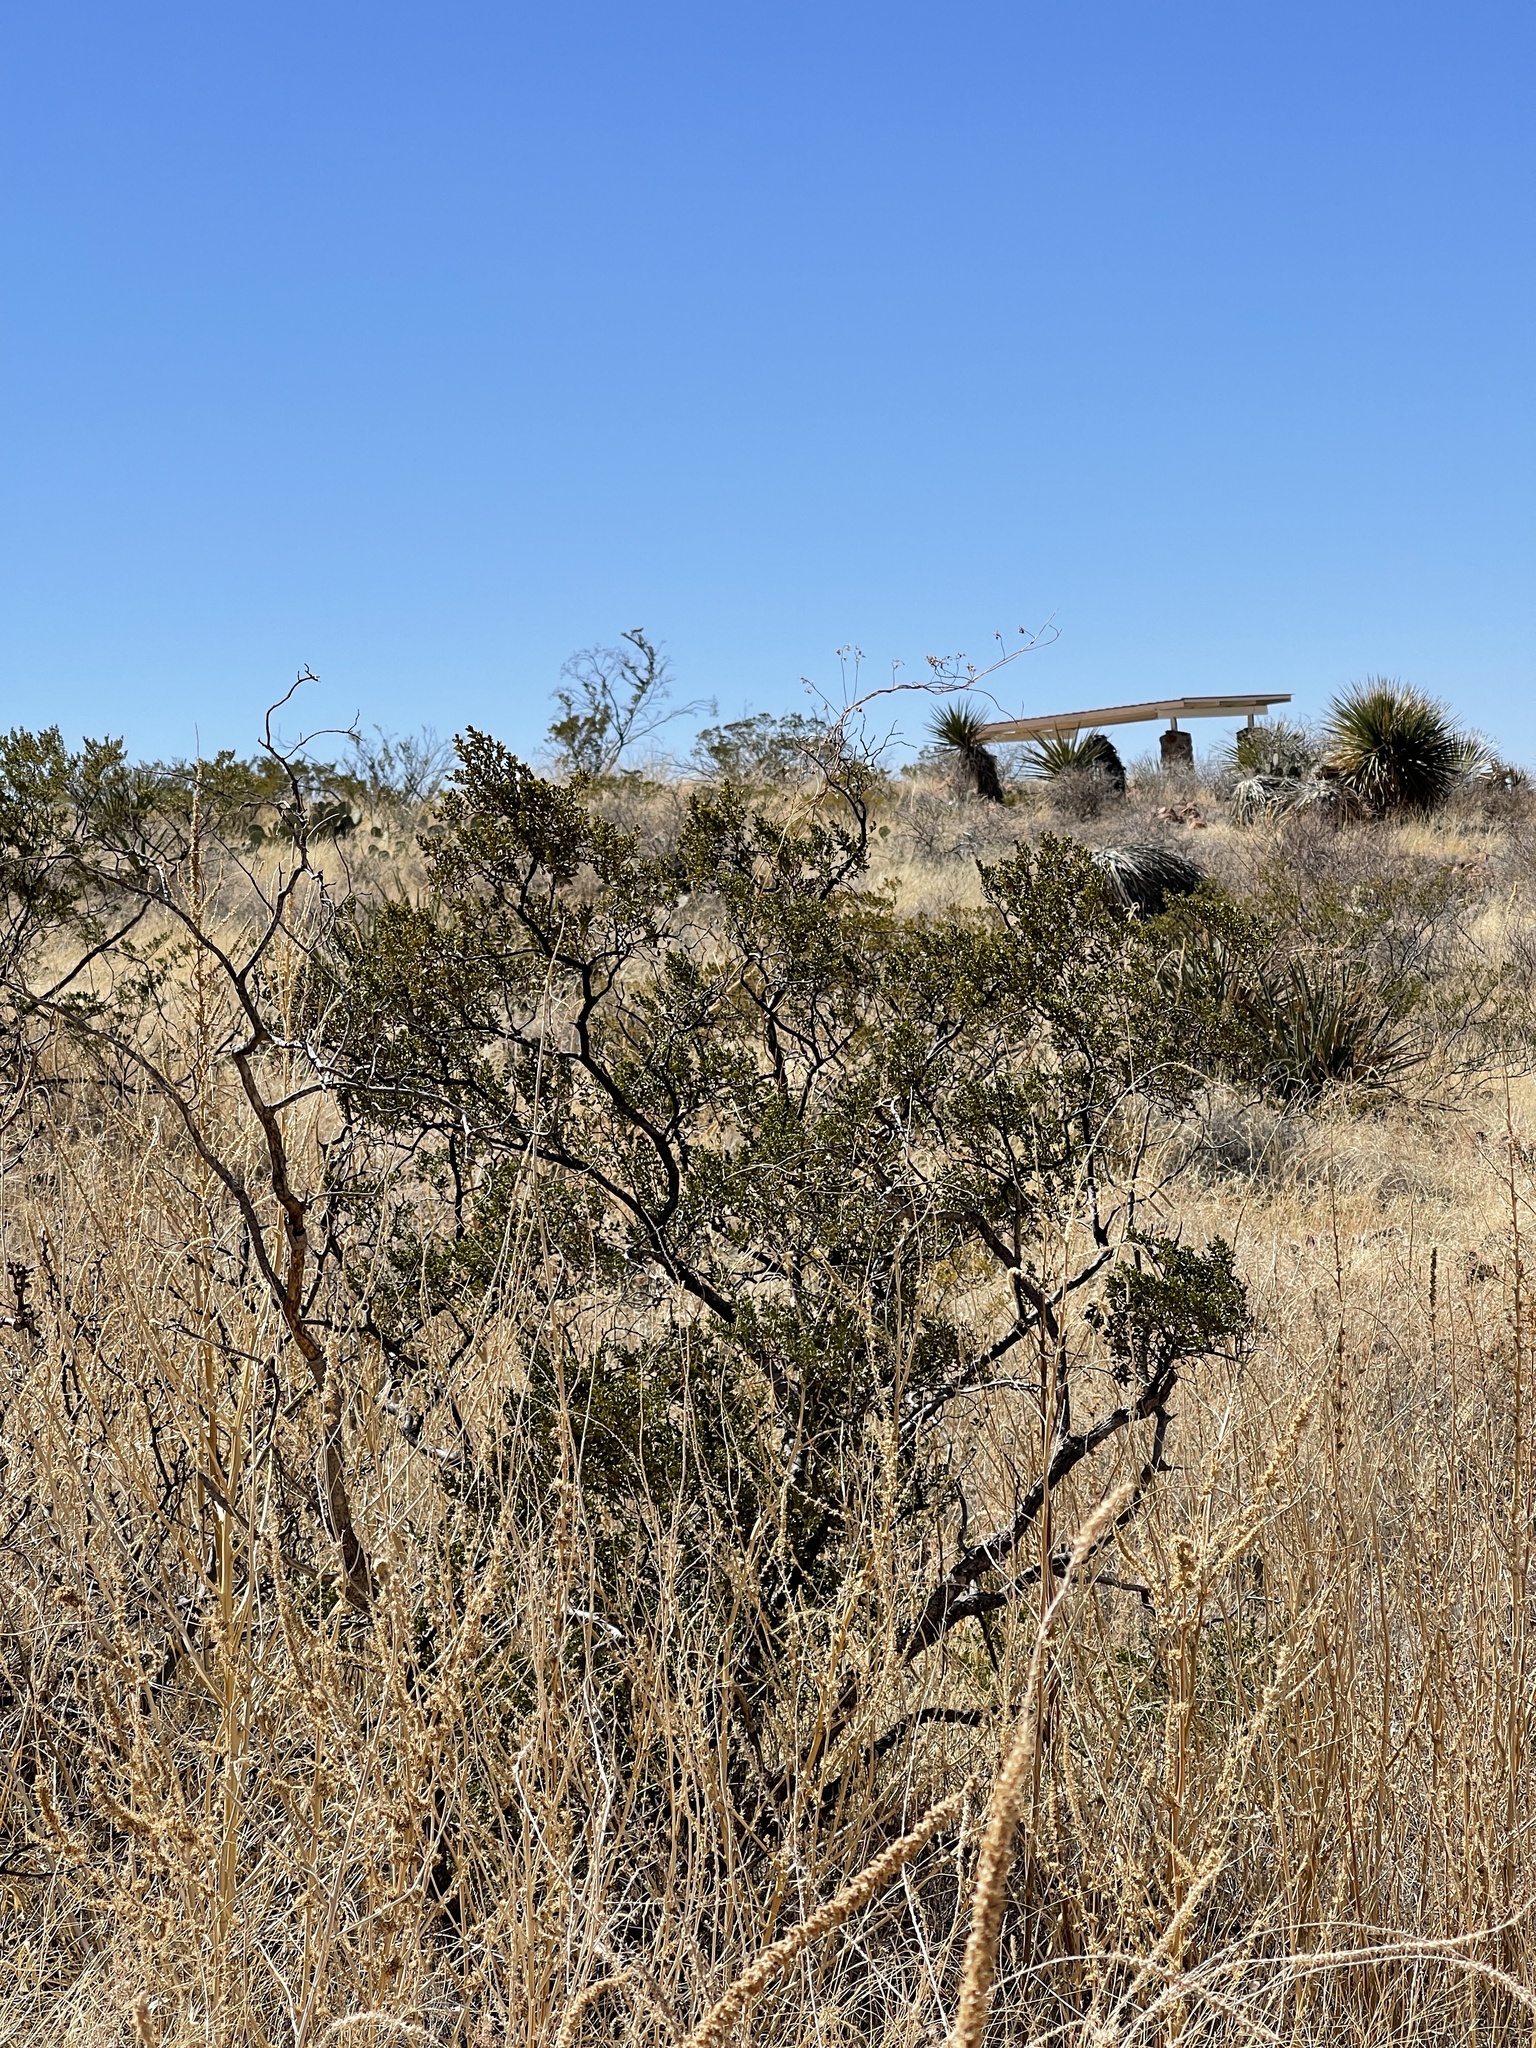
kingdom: Plantae
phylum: Tracheophyta
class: Magnoliopsida
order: Zygophyllales
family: Zygophyllaceae
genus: Larrea
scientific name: Larrea tridentata
